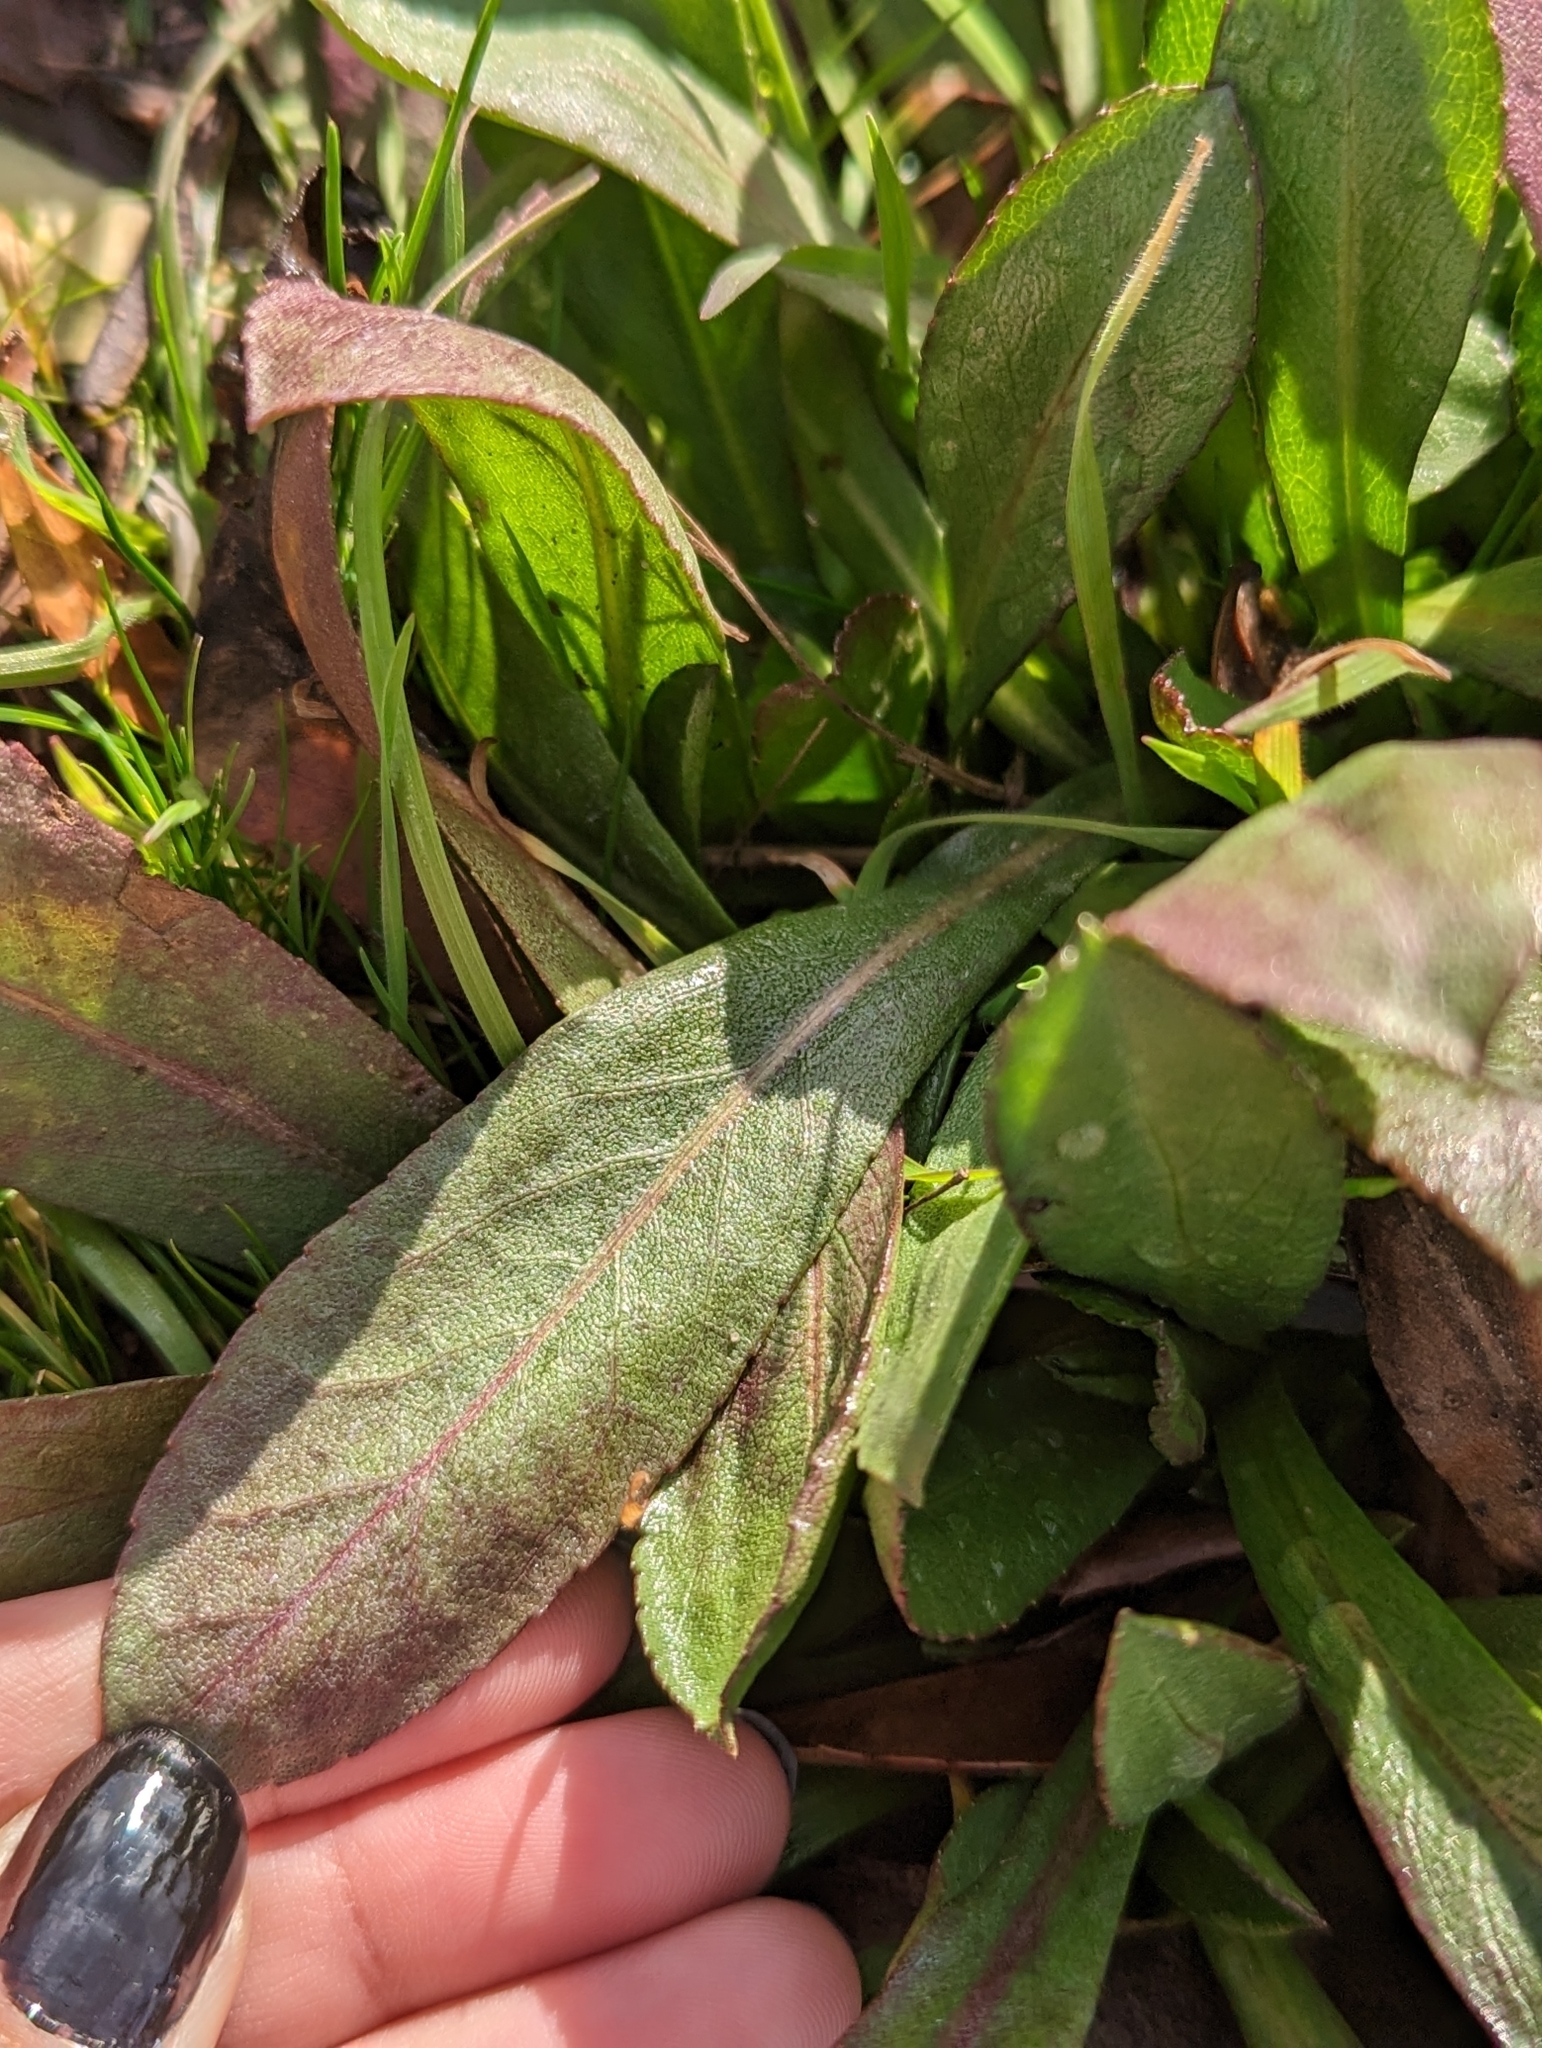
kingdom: Plantae
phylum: Tracheophyta
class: Magnoliopsida
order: Asterales
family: Asteraceae
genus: Grindelia
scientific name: Grindelia hirsutula
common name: Hairy gumweed
